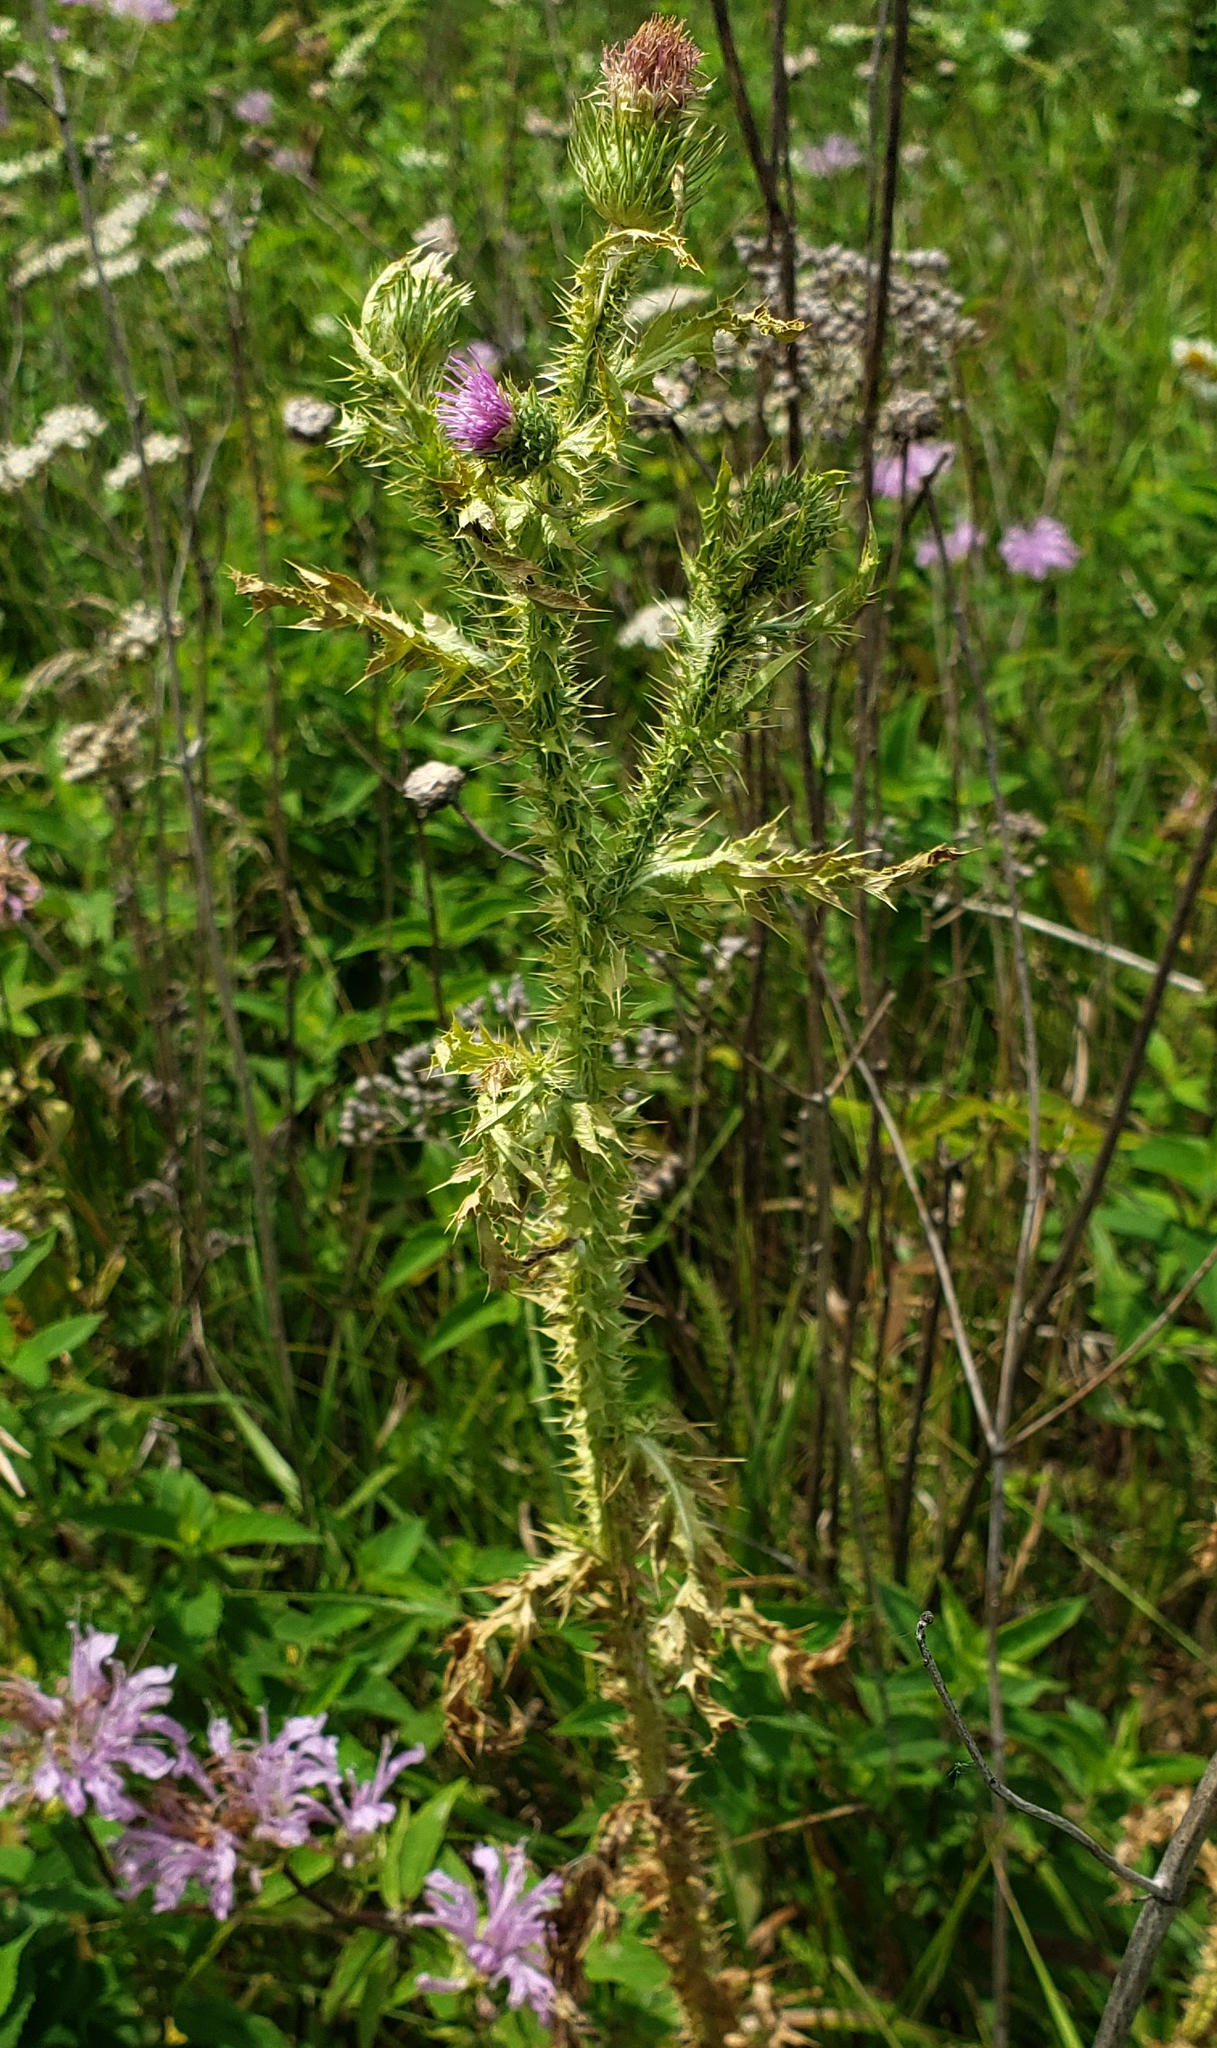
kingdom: Plantae
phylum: Tracheophyta
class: Magnoliopsida
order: Asterales
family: Asteraceae
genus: Carduus
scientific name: Carduus acanthoides
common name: Plumeless thistle
